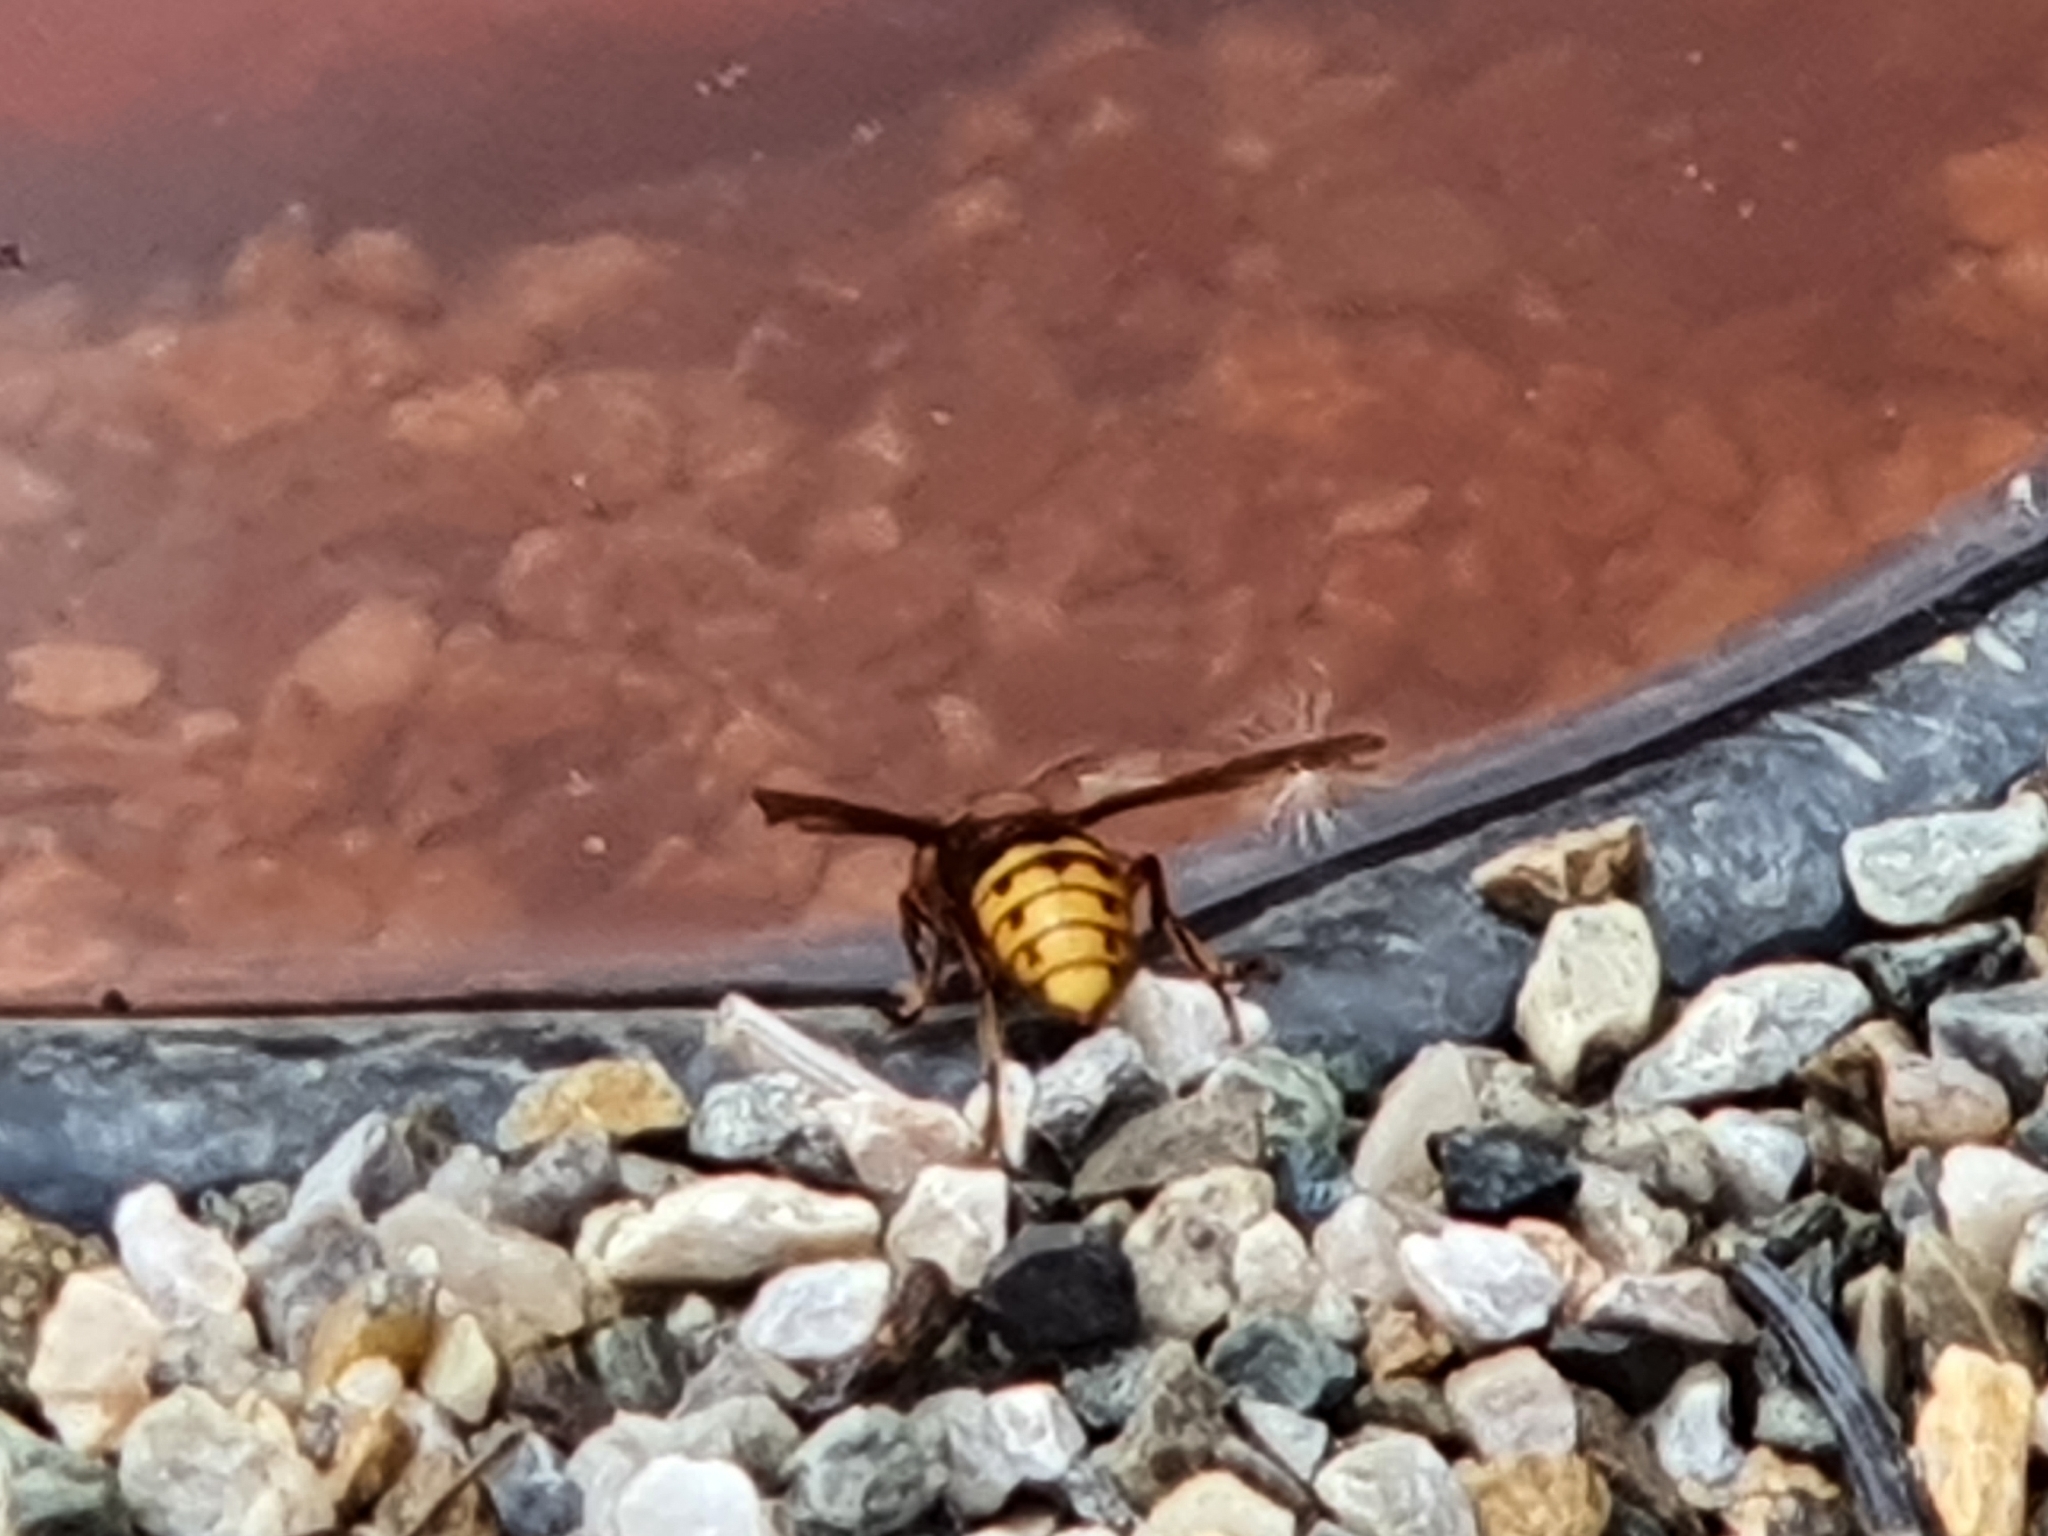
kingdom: Animalia
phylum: Arthropoda
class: Insecta
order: Hymenoptera
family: Vespidae
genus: Vespa
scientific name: Vespa crabro
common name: Hornet
